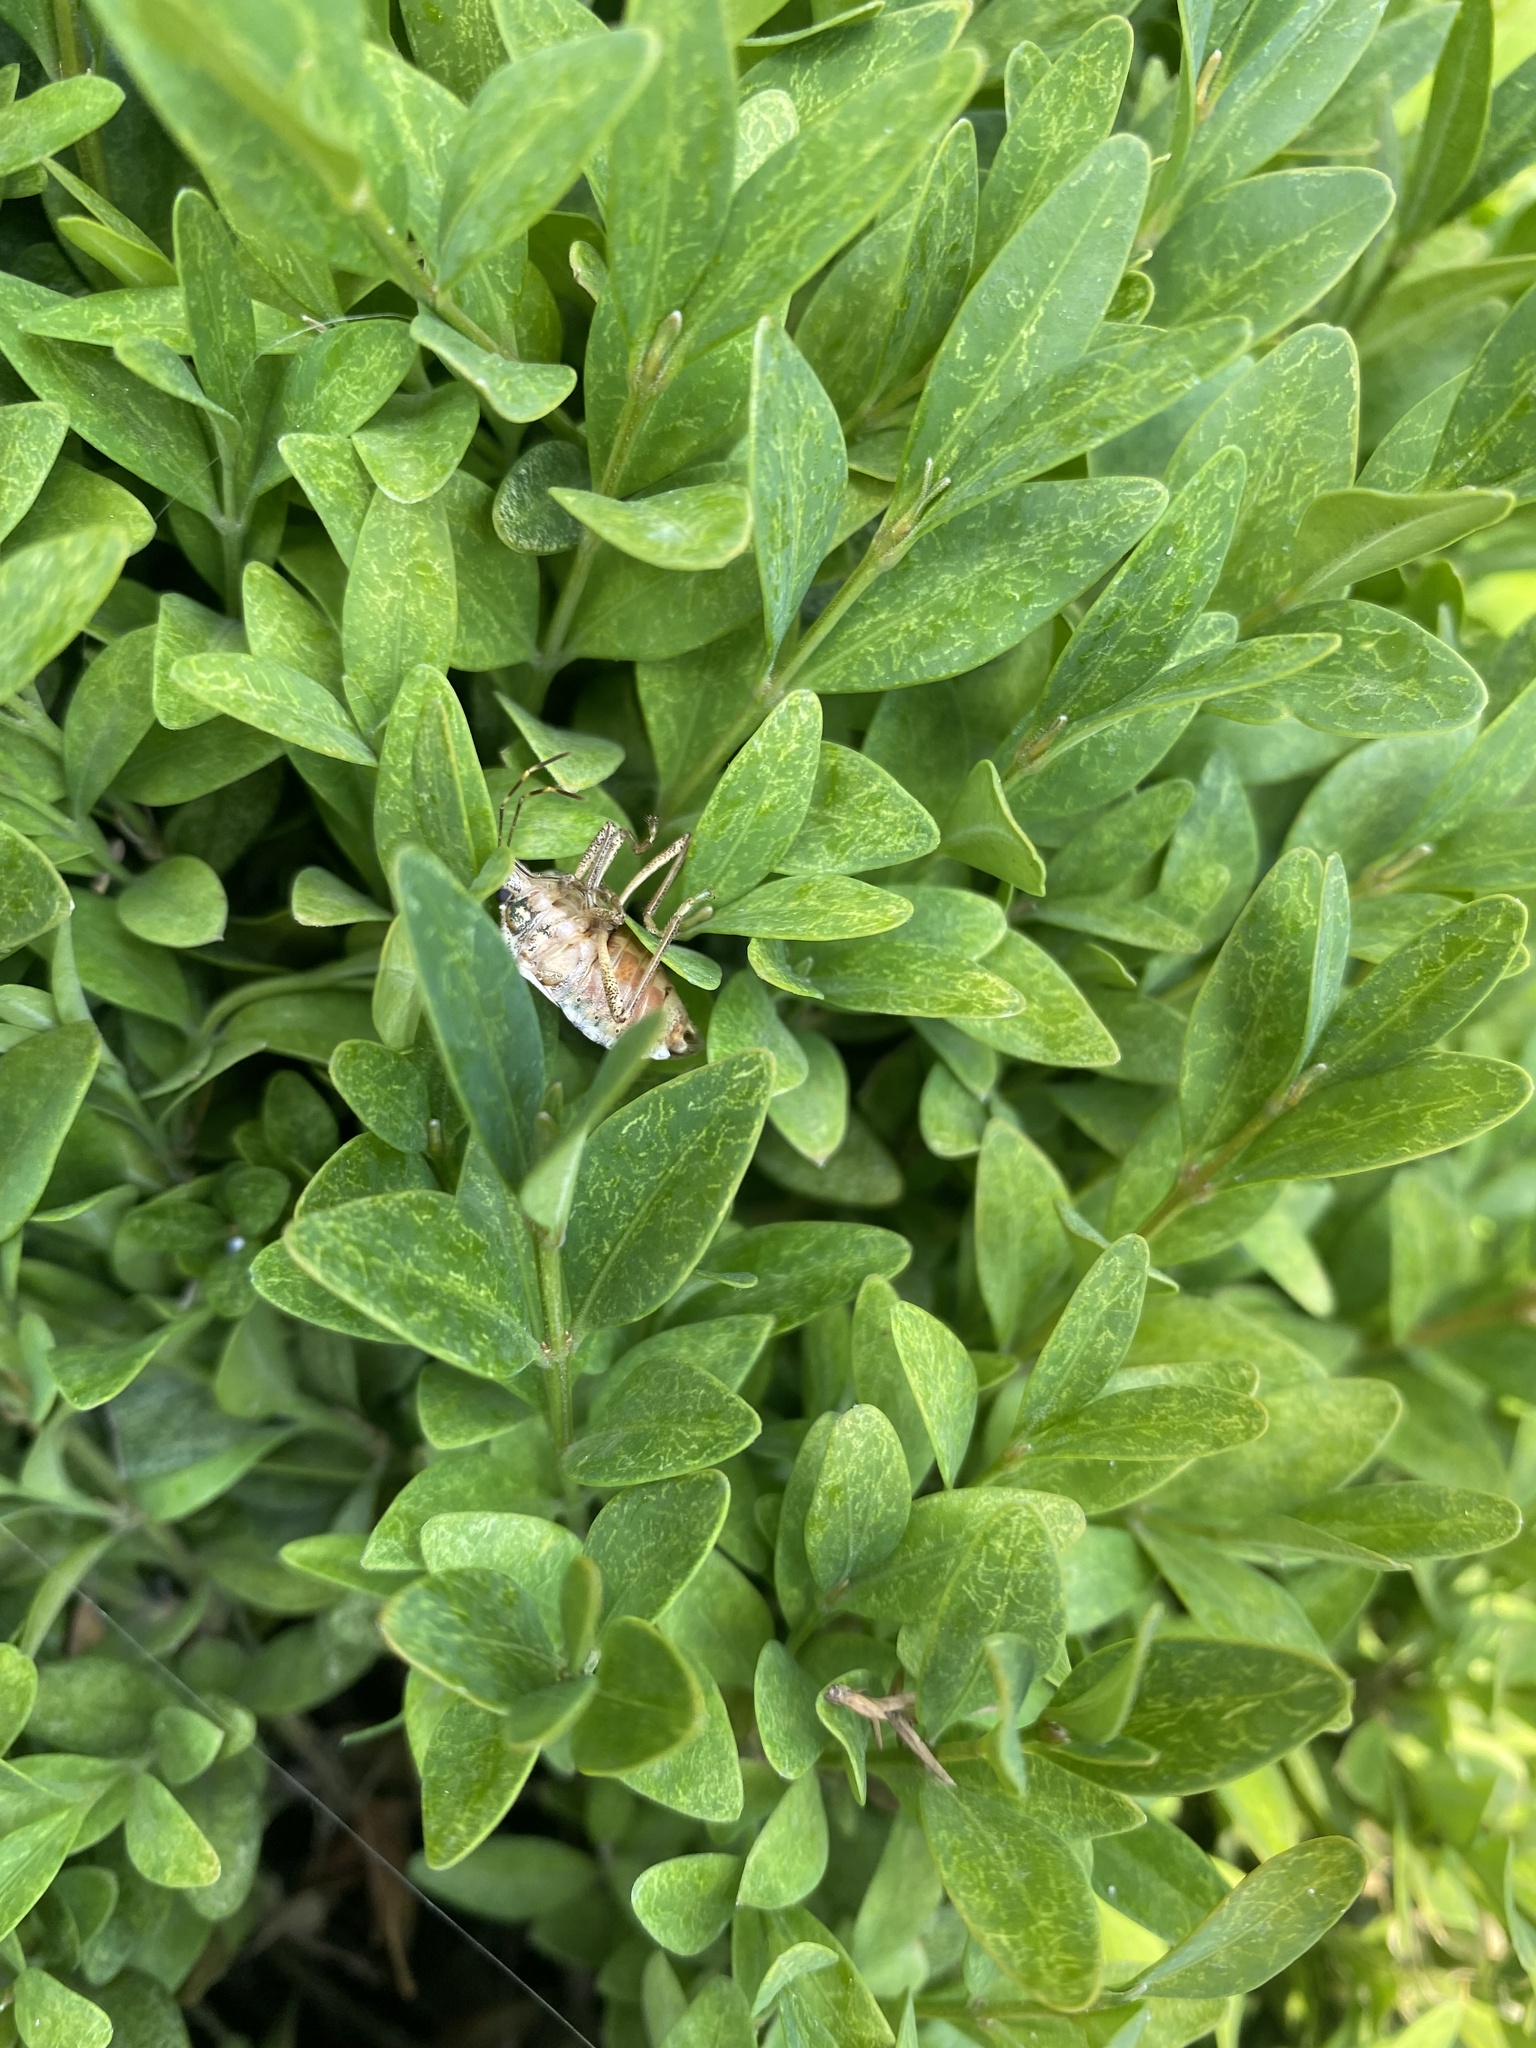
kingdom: Animalia
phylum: Arthropoda
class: Insecta
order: Hemiptera
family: Pentatomidae
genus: Halyomorpha
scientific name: Halyomorpha halys
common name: Brown marmorated stink bug
